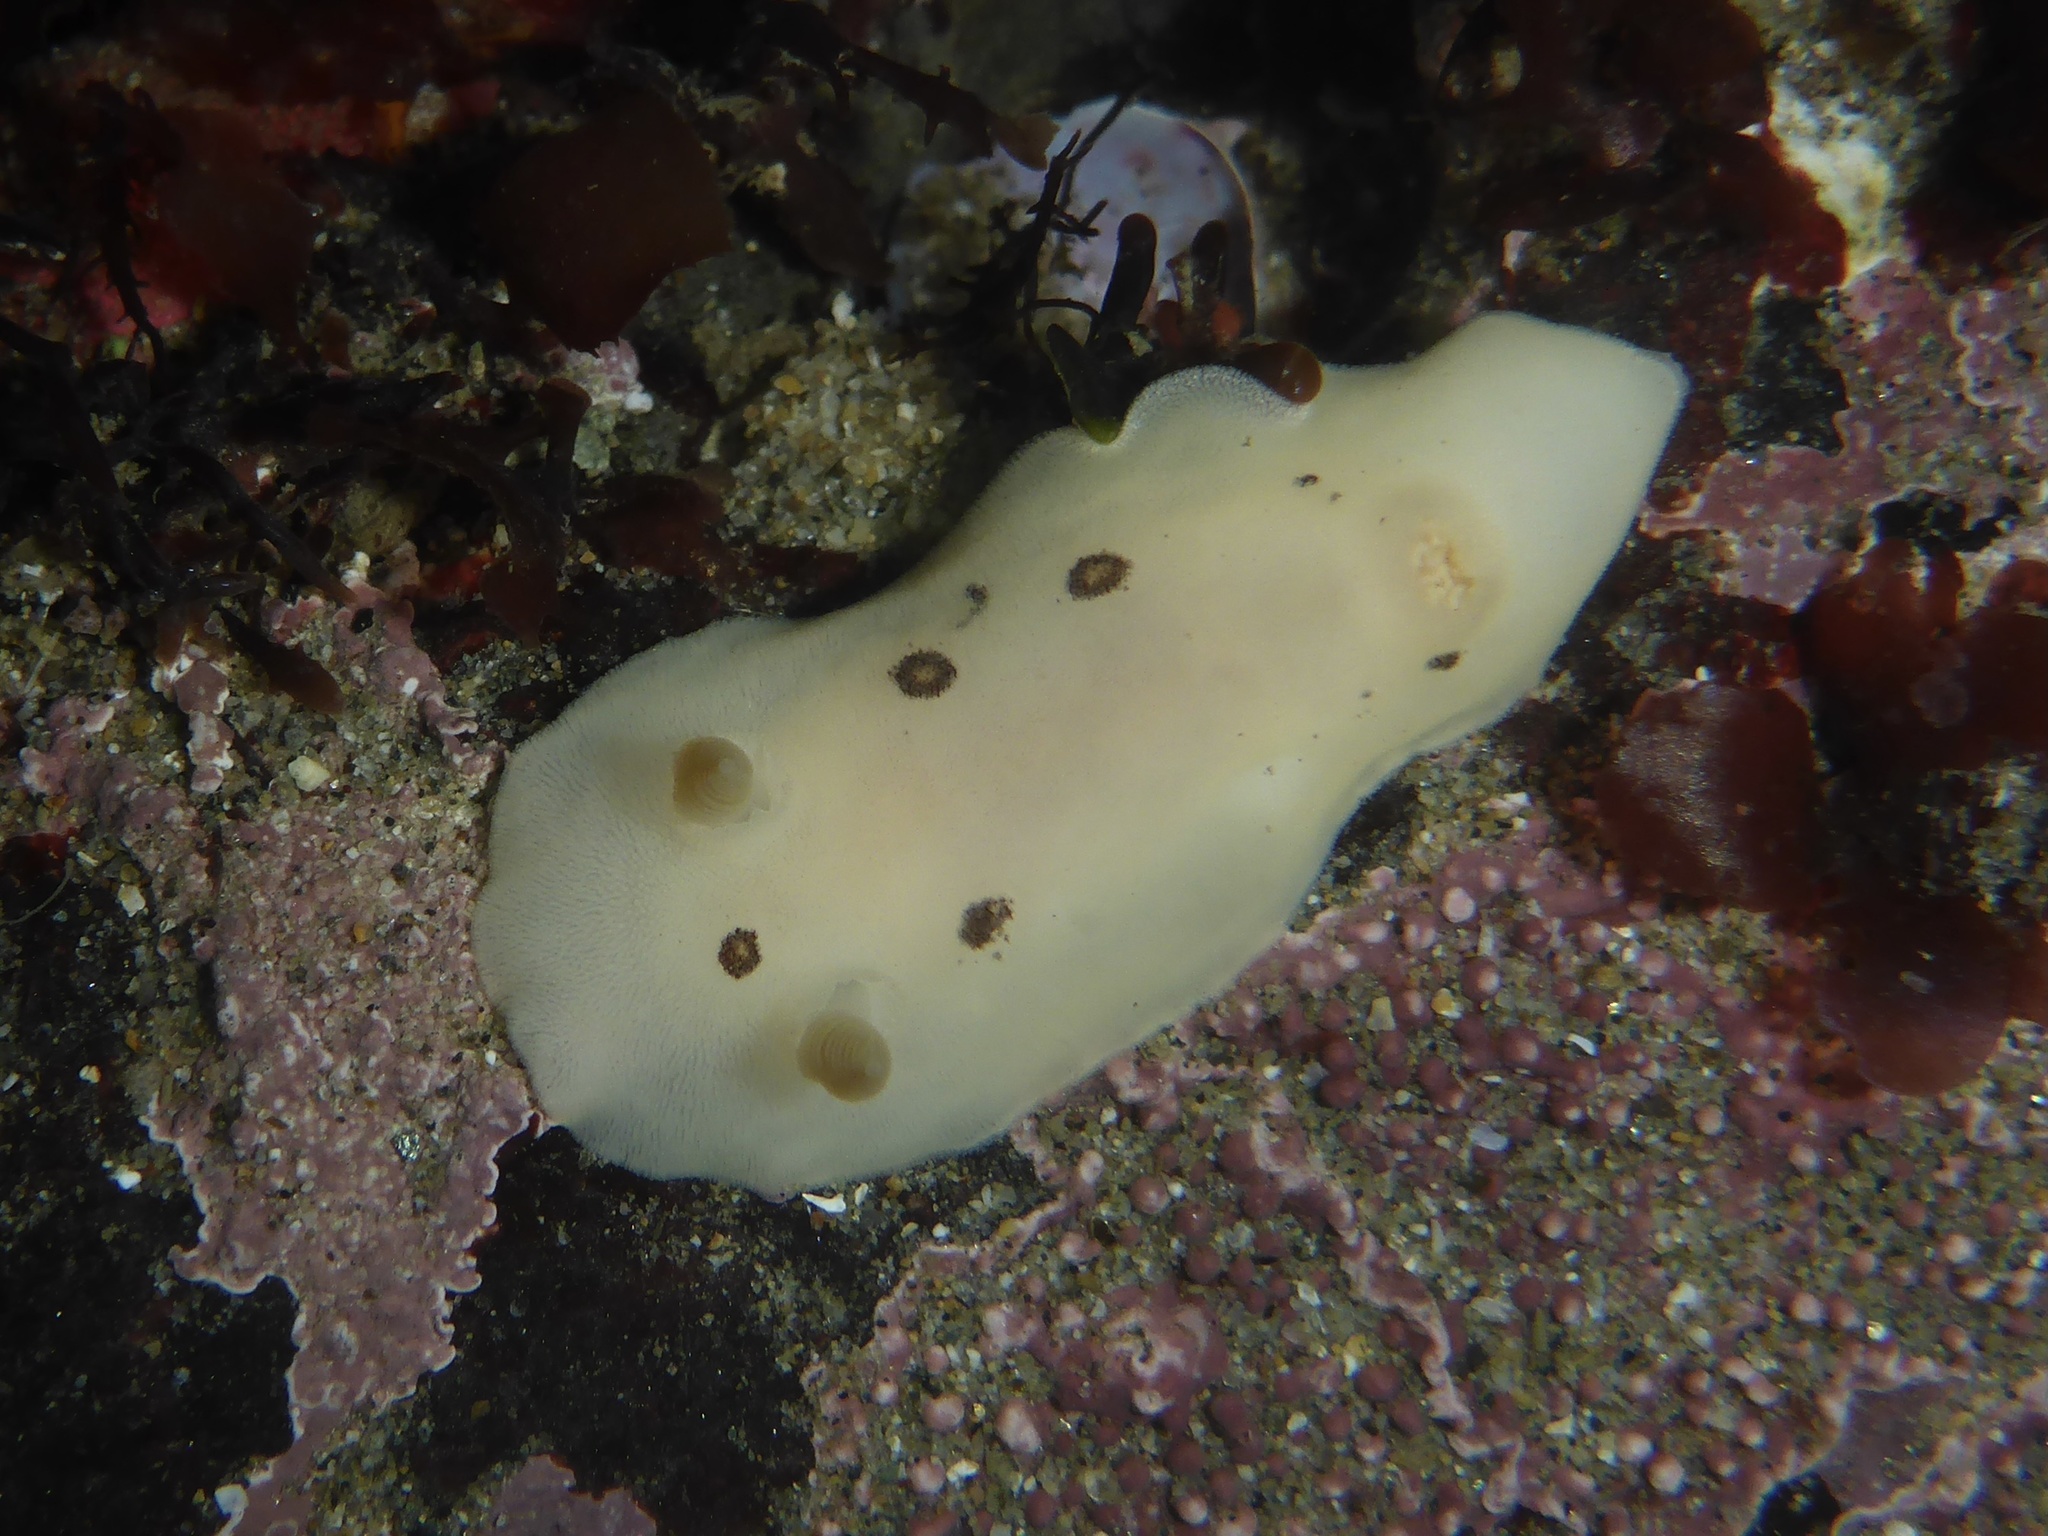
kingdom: Animalia
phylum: Mollusca
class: Gastropoda
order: Nudibranchia
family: Discodorididae
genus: Diaulula
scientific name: Diaulula sandiegensis
